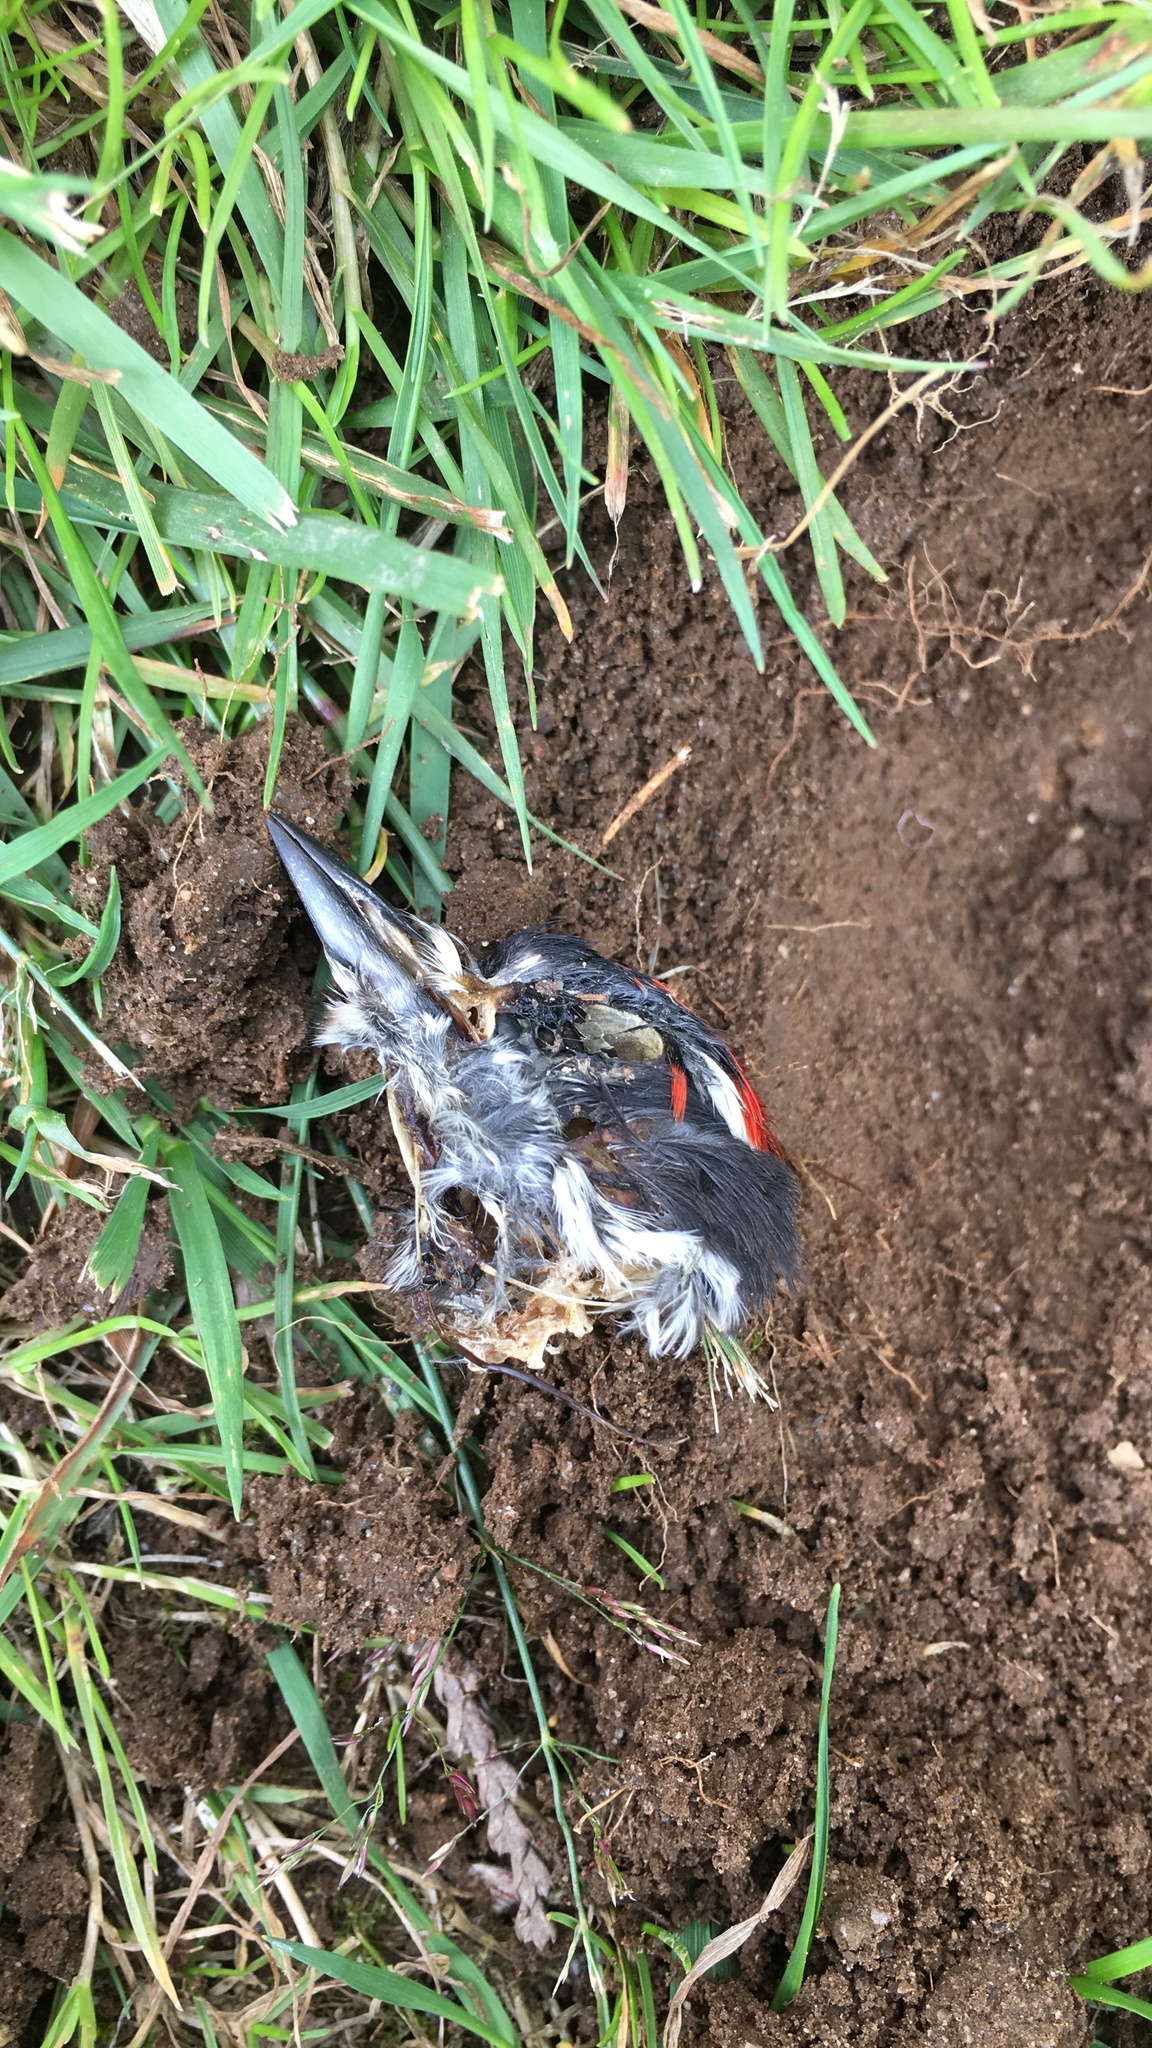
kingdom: Animalia
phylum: Chordata
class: Aves
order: Piciformes
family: Picidae
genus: Dryobates
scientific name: Dryobates pubescens
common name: Downy woodpecker
